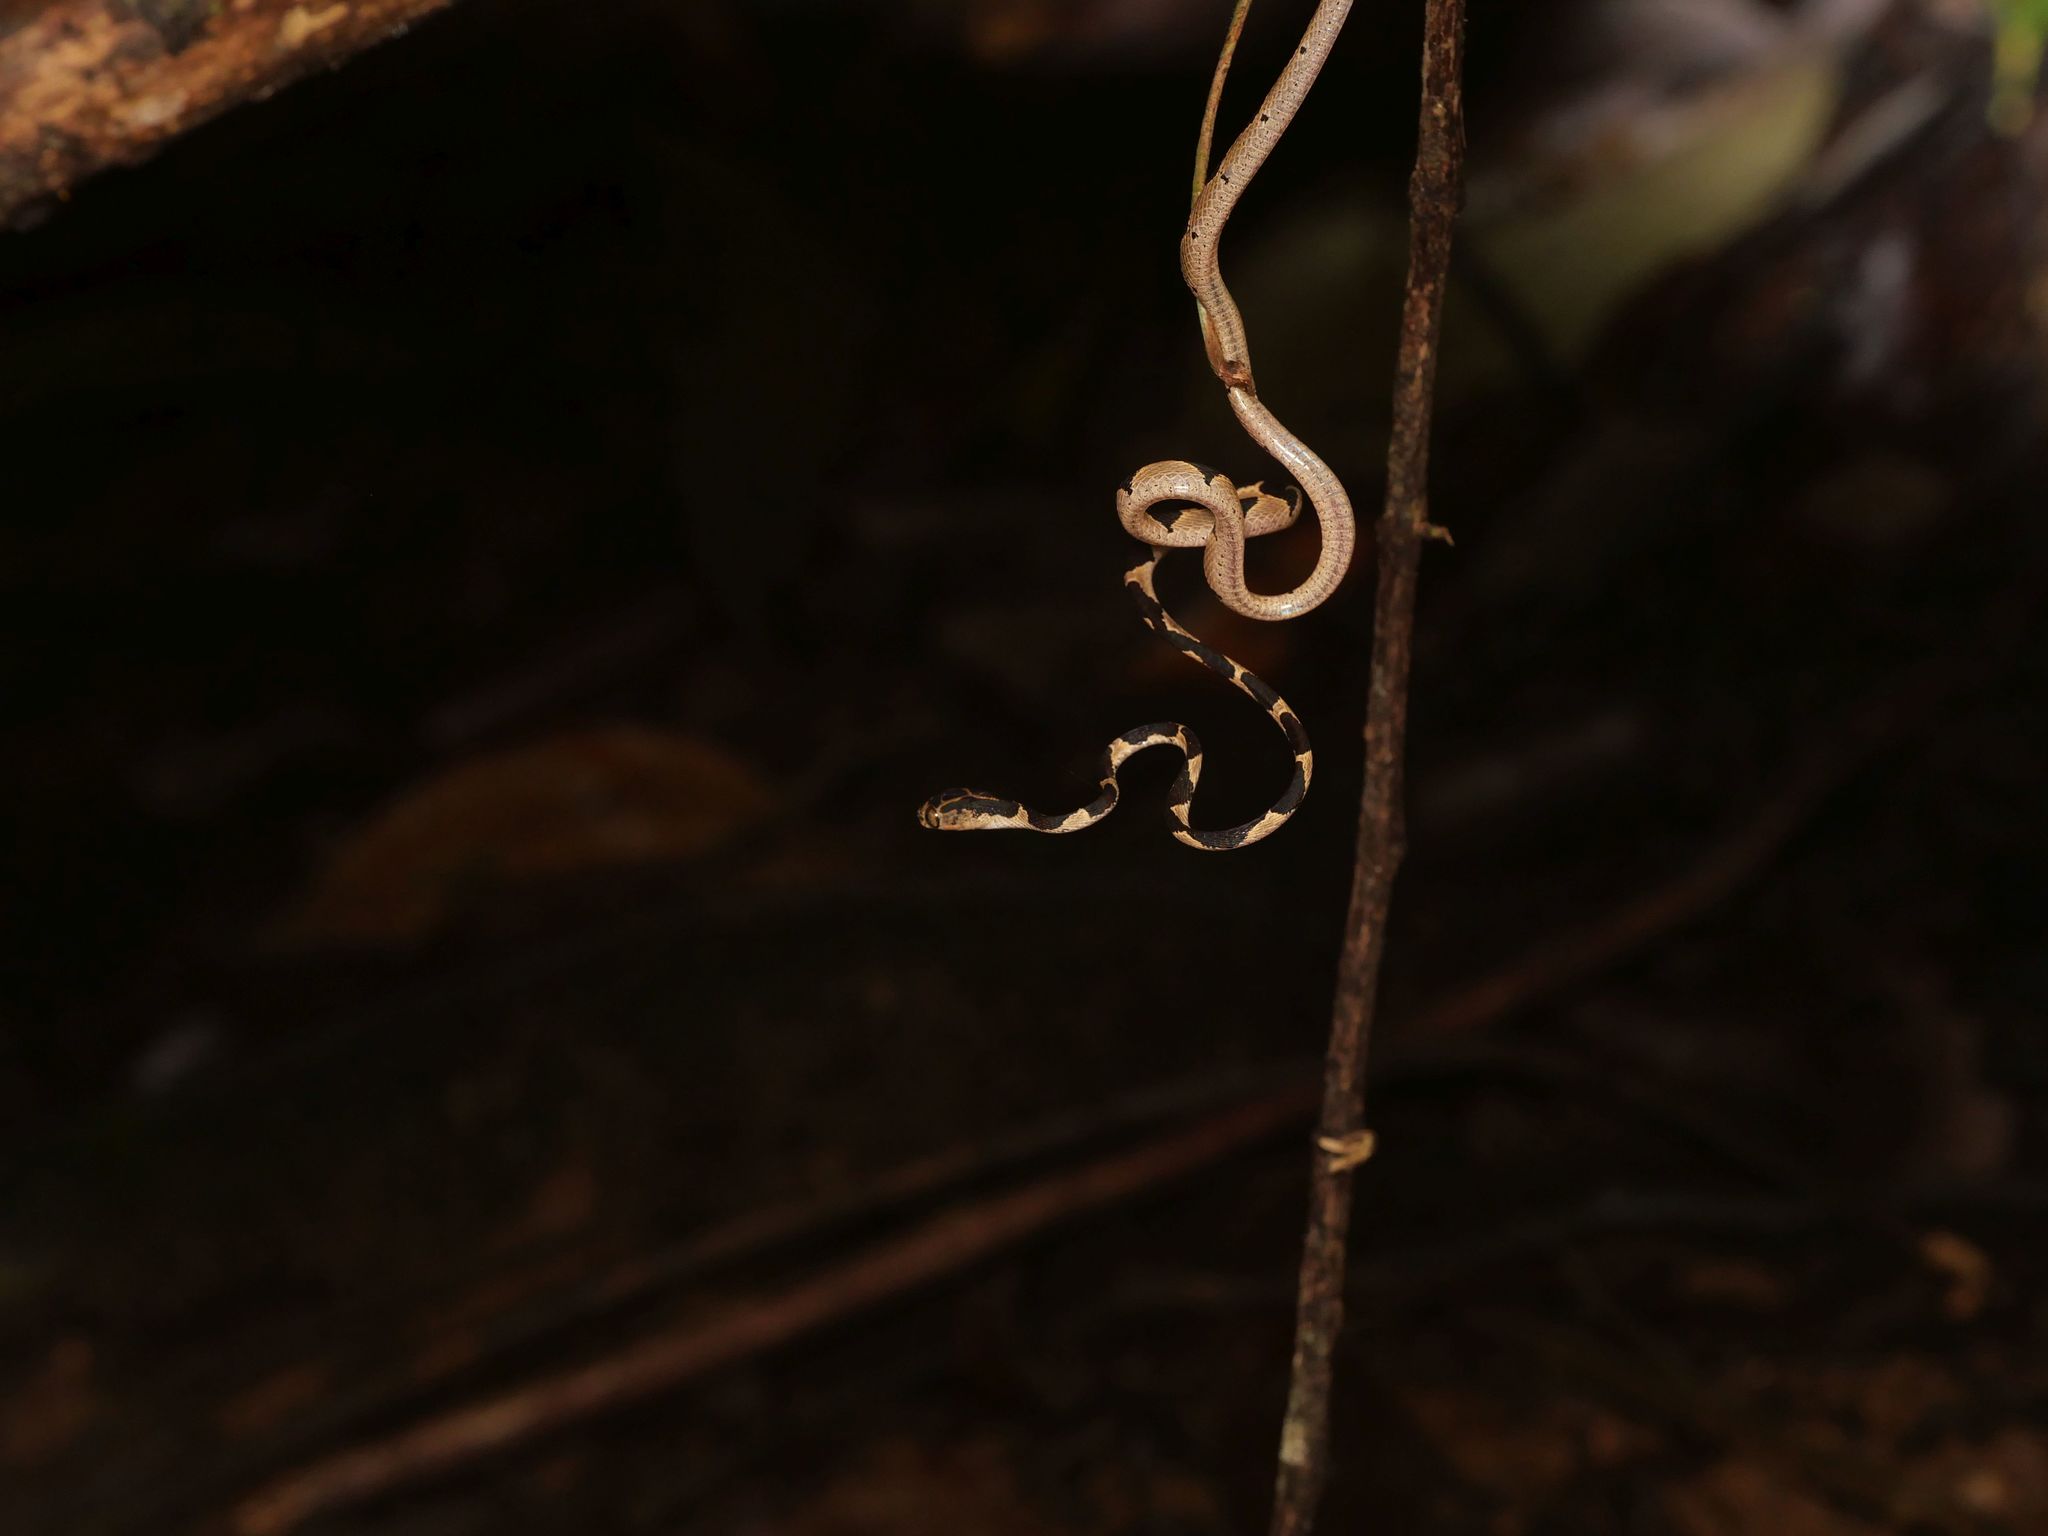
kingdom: Animalia
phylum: Chordata
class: Squamata
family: Colubridae
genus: Imantodes
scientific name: Imantodes cenchoa
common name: Blunthead tree snake
